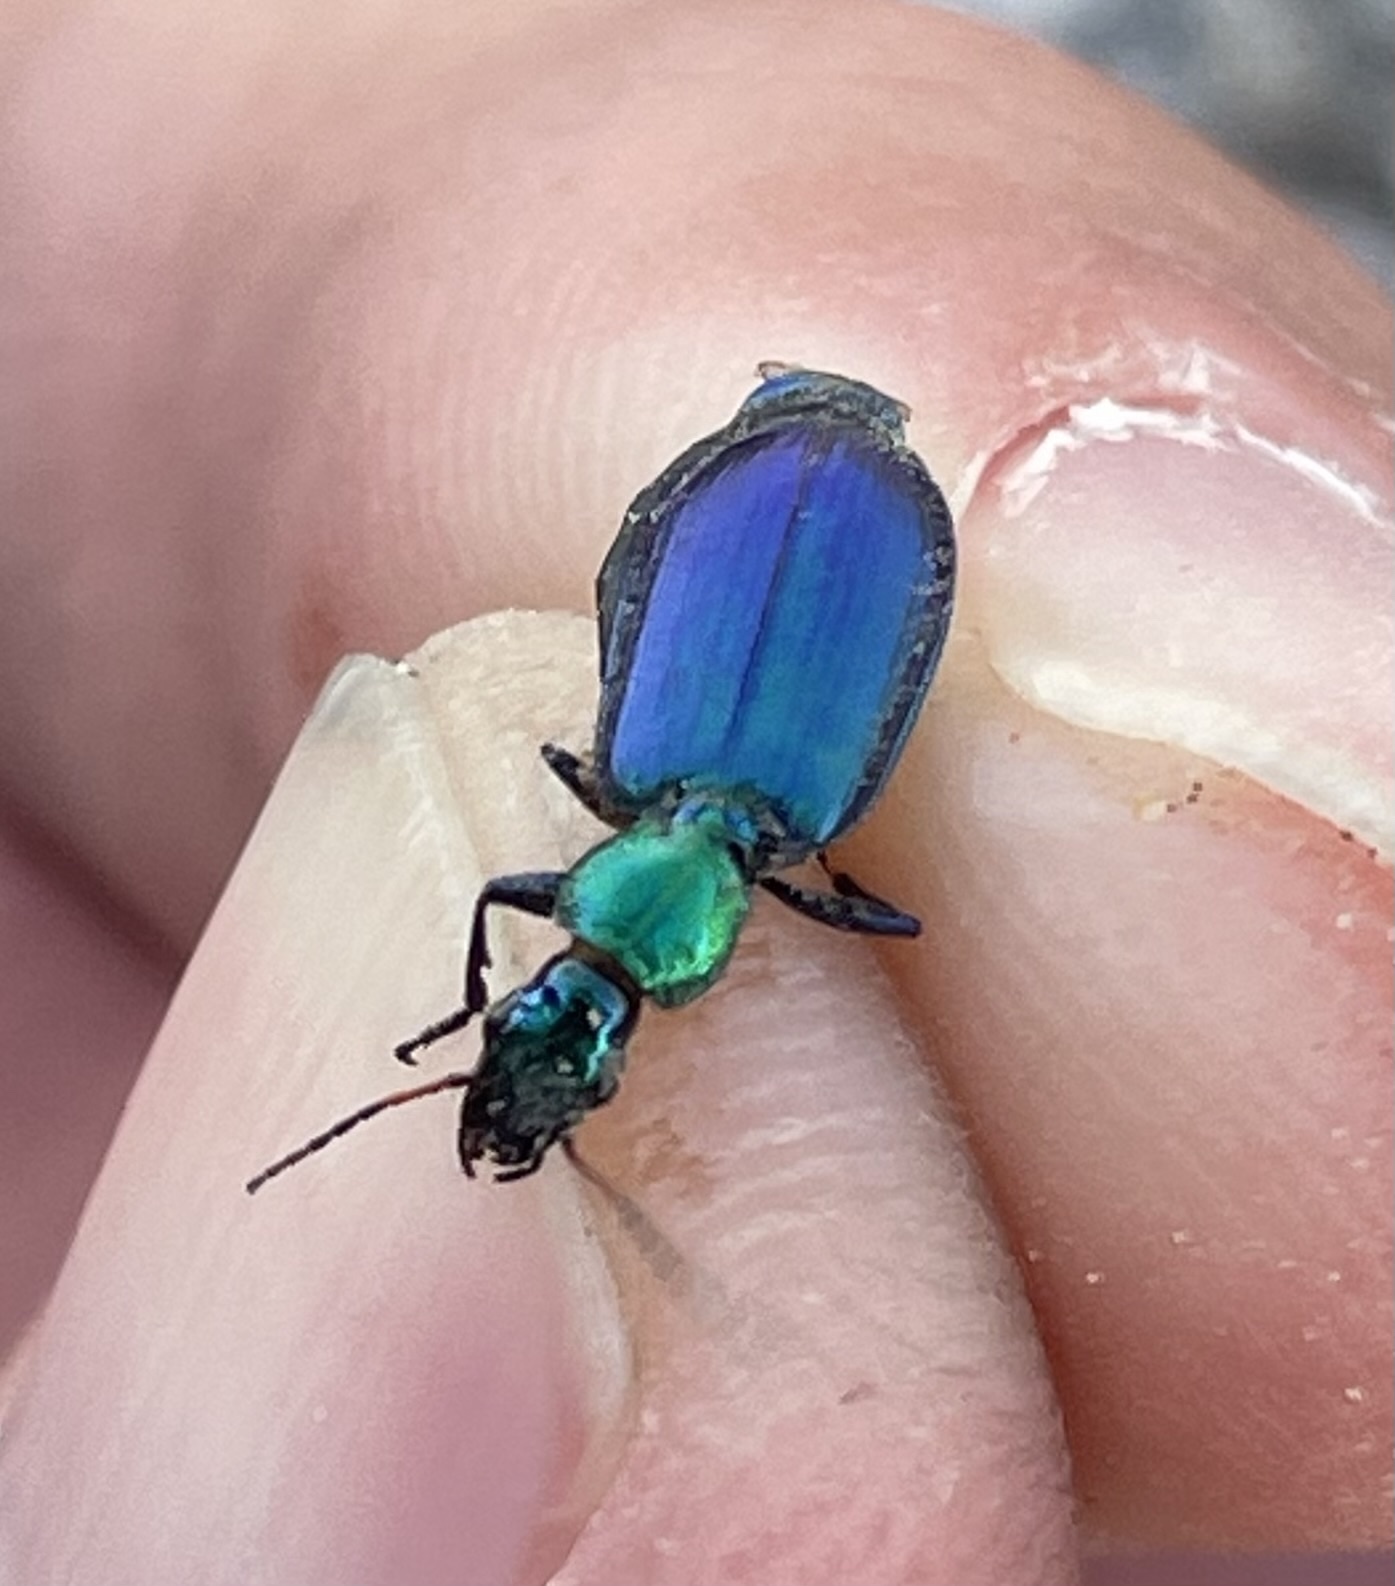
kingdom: Animalia
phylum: Arthropoda
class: Insecta
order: Coleoptera
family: Carabidae
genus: Philophuga
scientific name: Philophuga viridicollis
